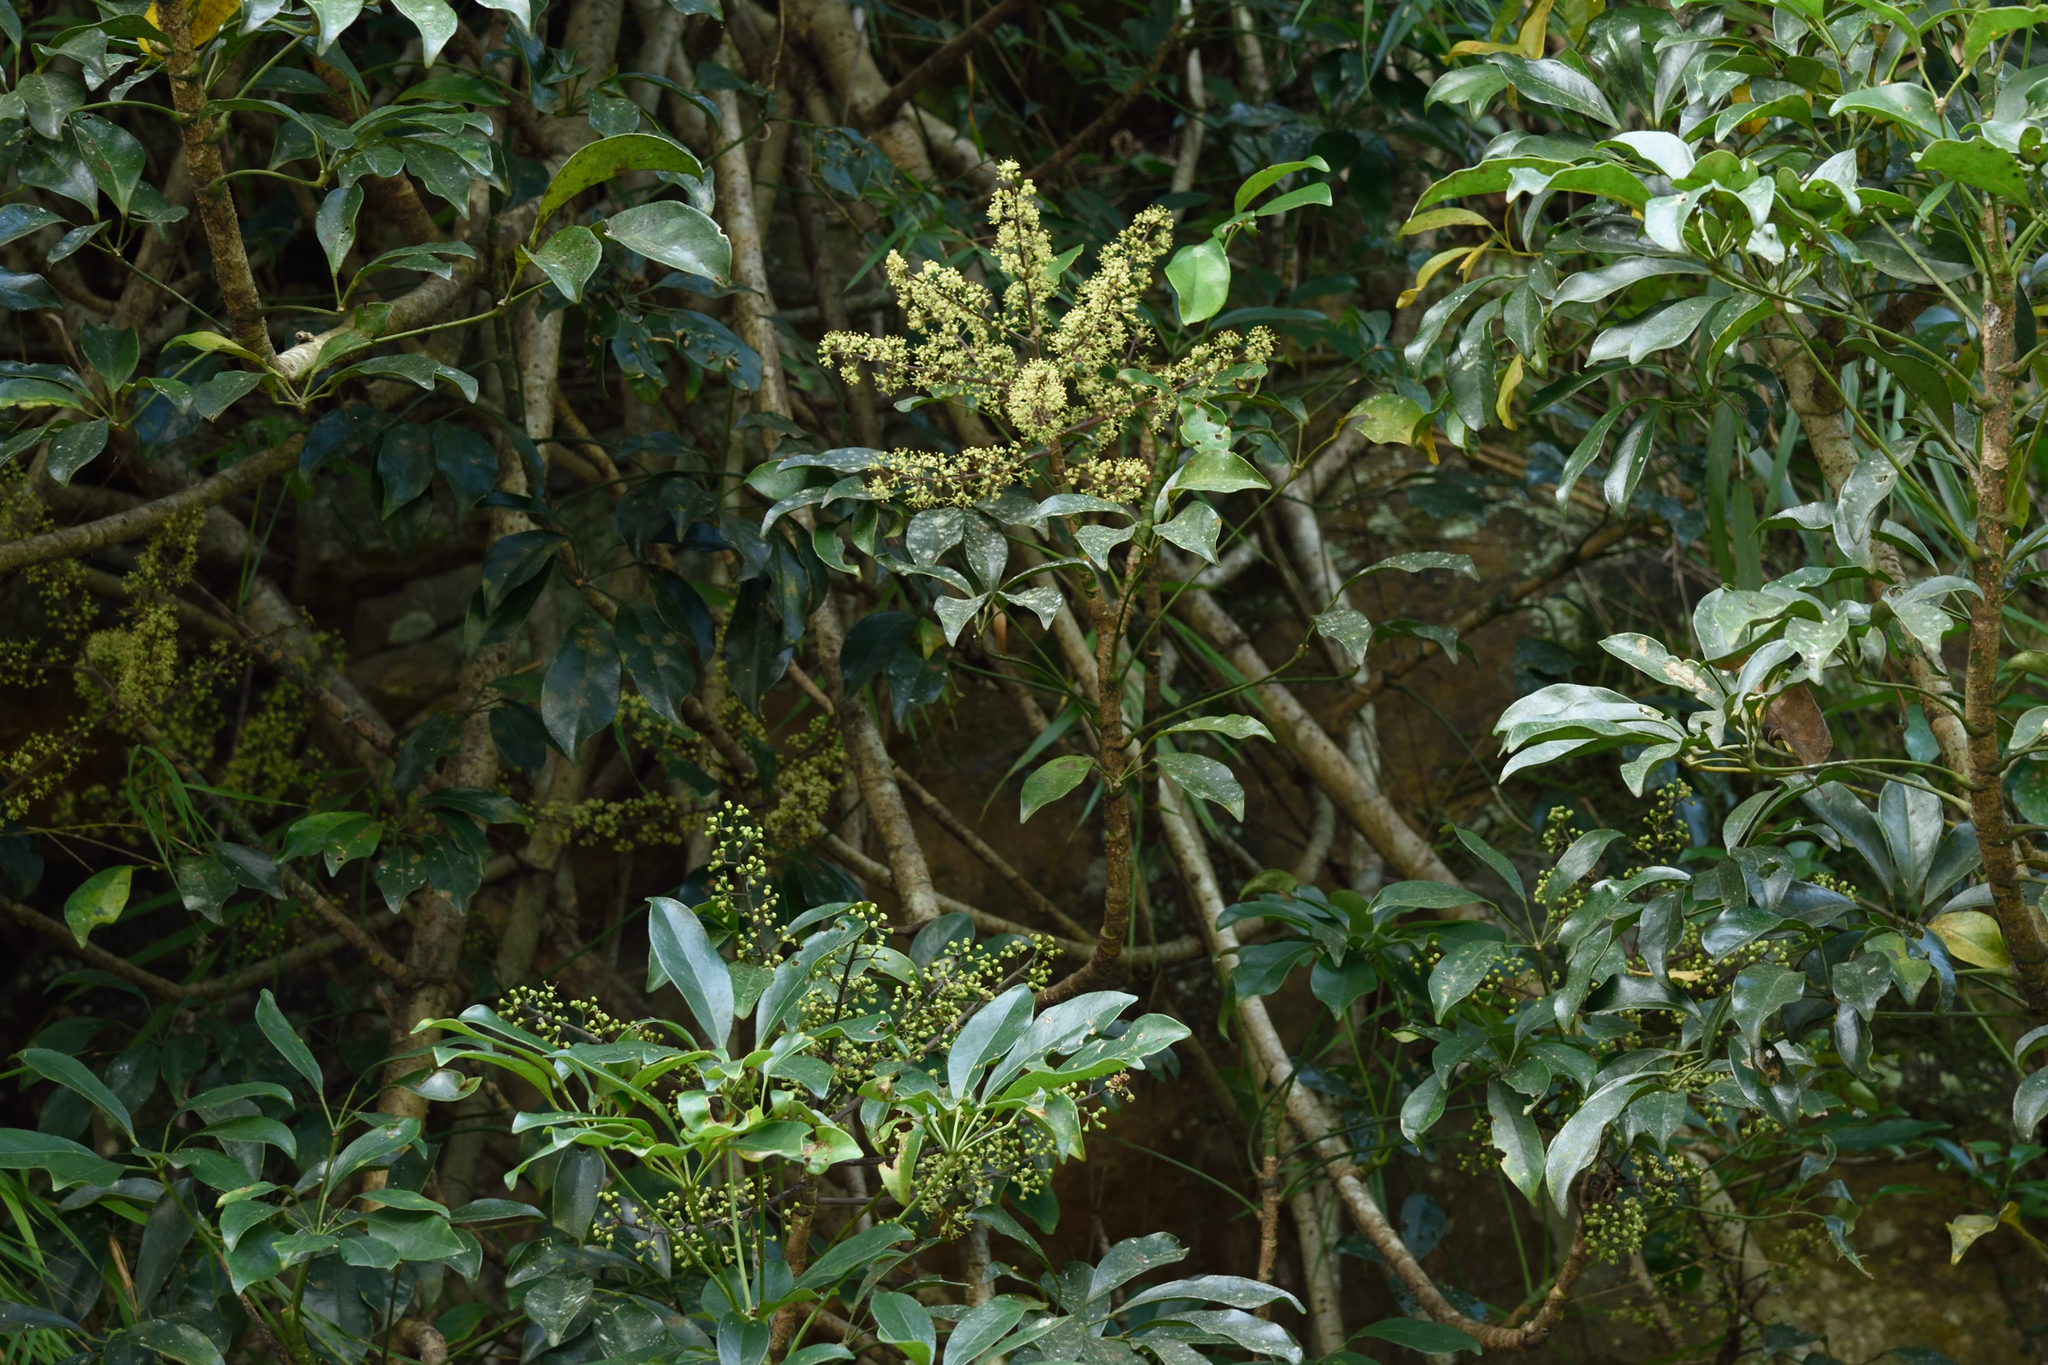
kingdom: Plantae
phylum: Tracheophyta
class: Magnoliopsida
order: Apiales
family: Araliaceae
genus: Heptapleurum
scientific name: Heptapleurum arboricola
